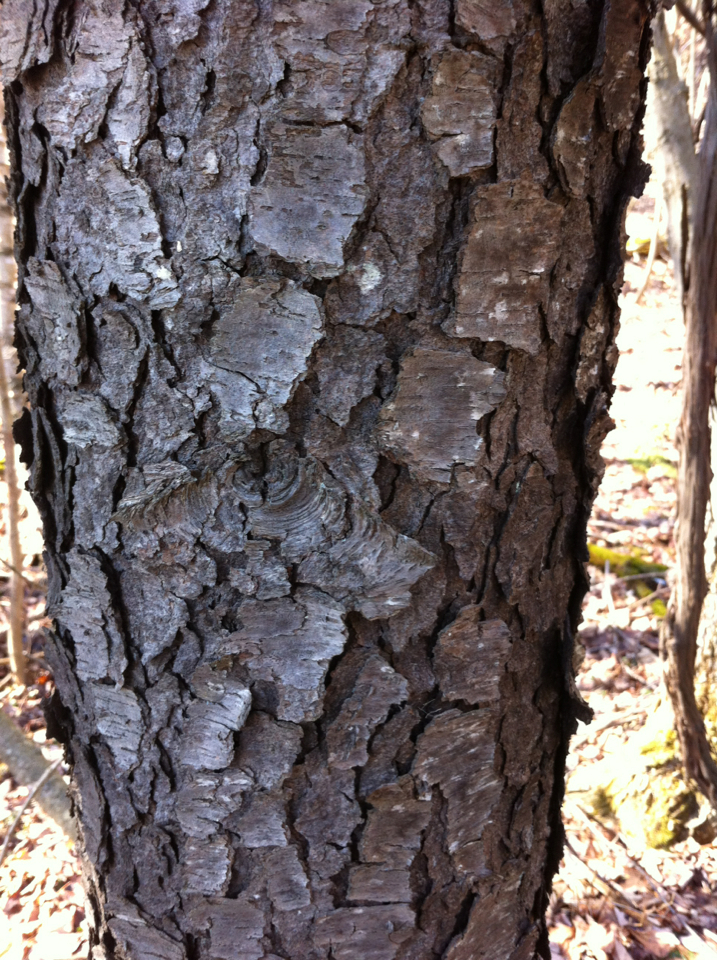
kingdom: Plantae
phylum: Tracheophyta
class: Magnoliopsida
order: Rosales
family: Rosaceae
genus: Prunus
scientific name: Prunus serotina
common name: Black cherry
